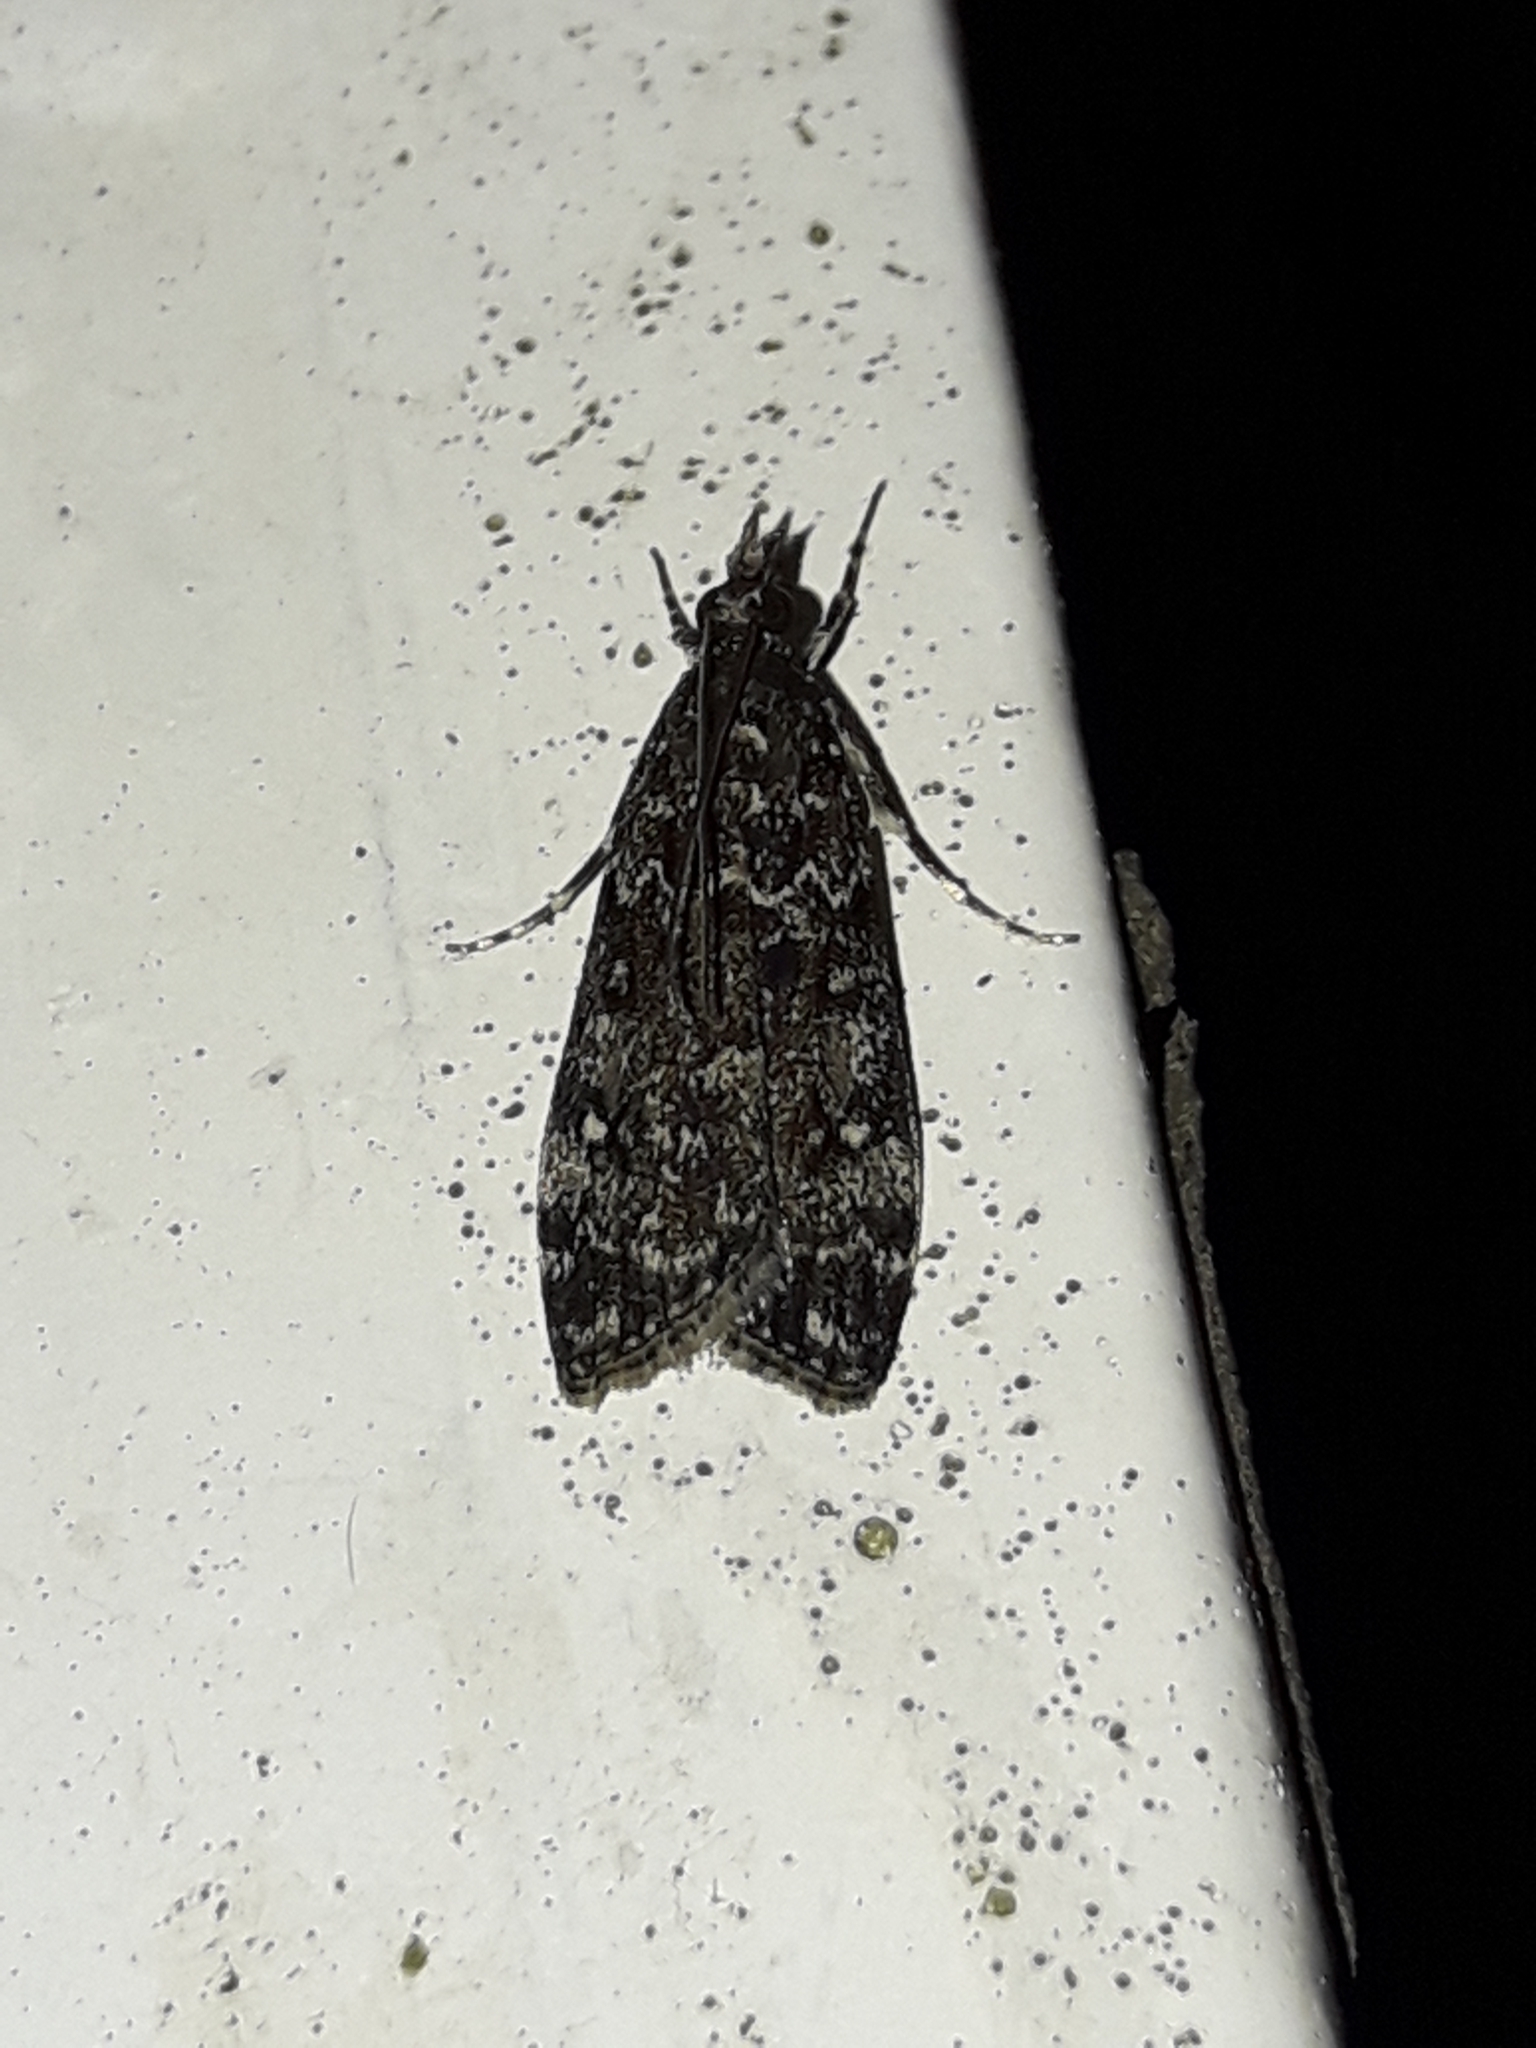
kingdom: Animalia
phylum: Arthropoda
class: Insecta
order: Lepidoptera
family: Crambidae
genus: Eudonia
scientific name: Eudonia philerga
